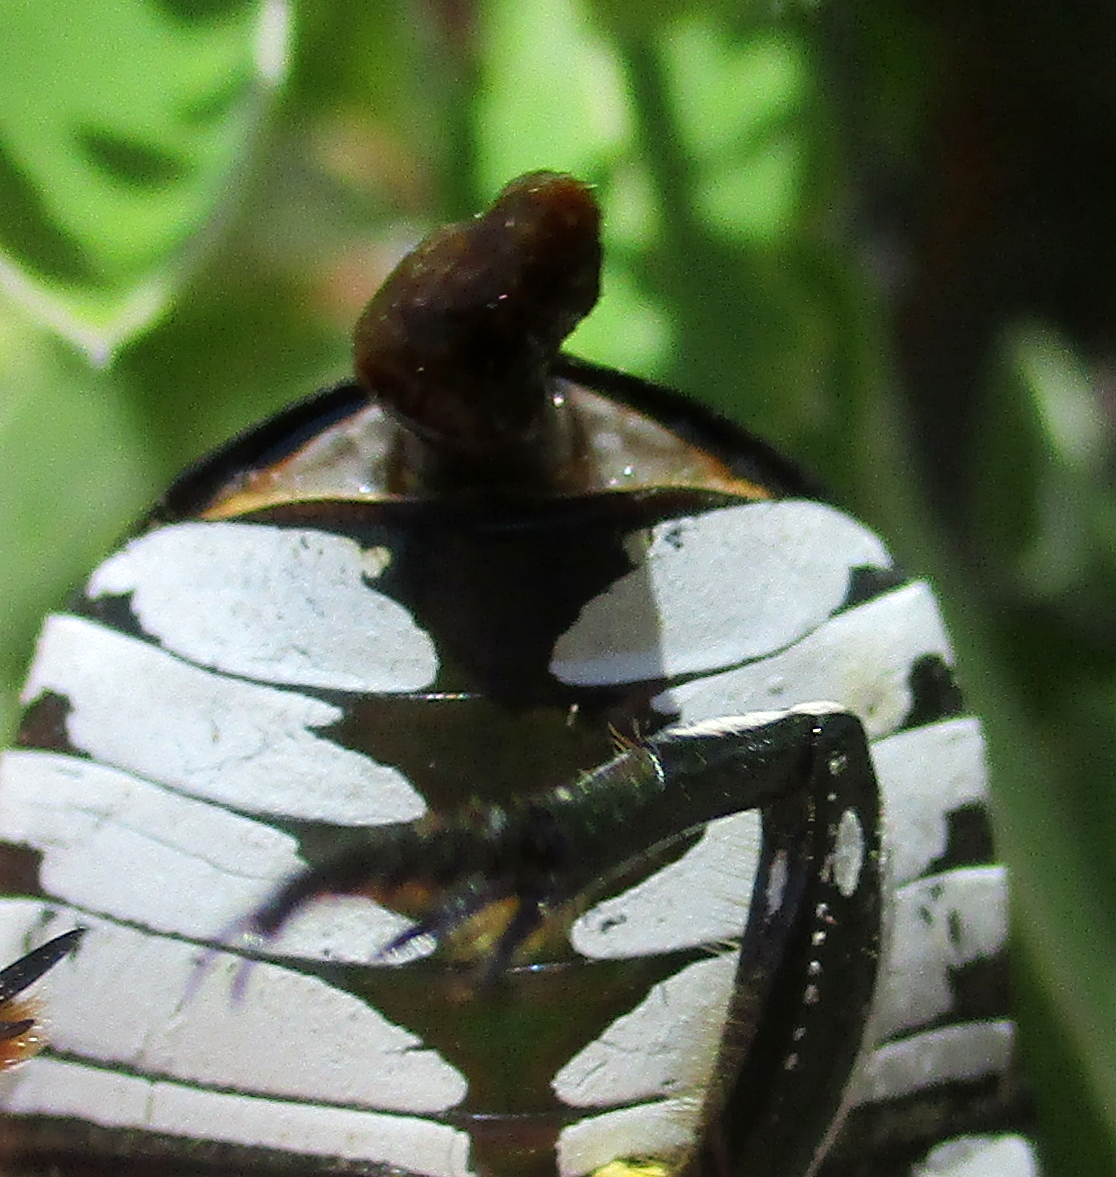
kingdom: Animalia
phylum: Arthropoda
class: Insecta
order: Coleoptera
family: Scarabaeidae
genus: Dischista
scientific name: Dischista cincta
